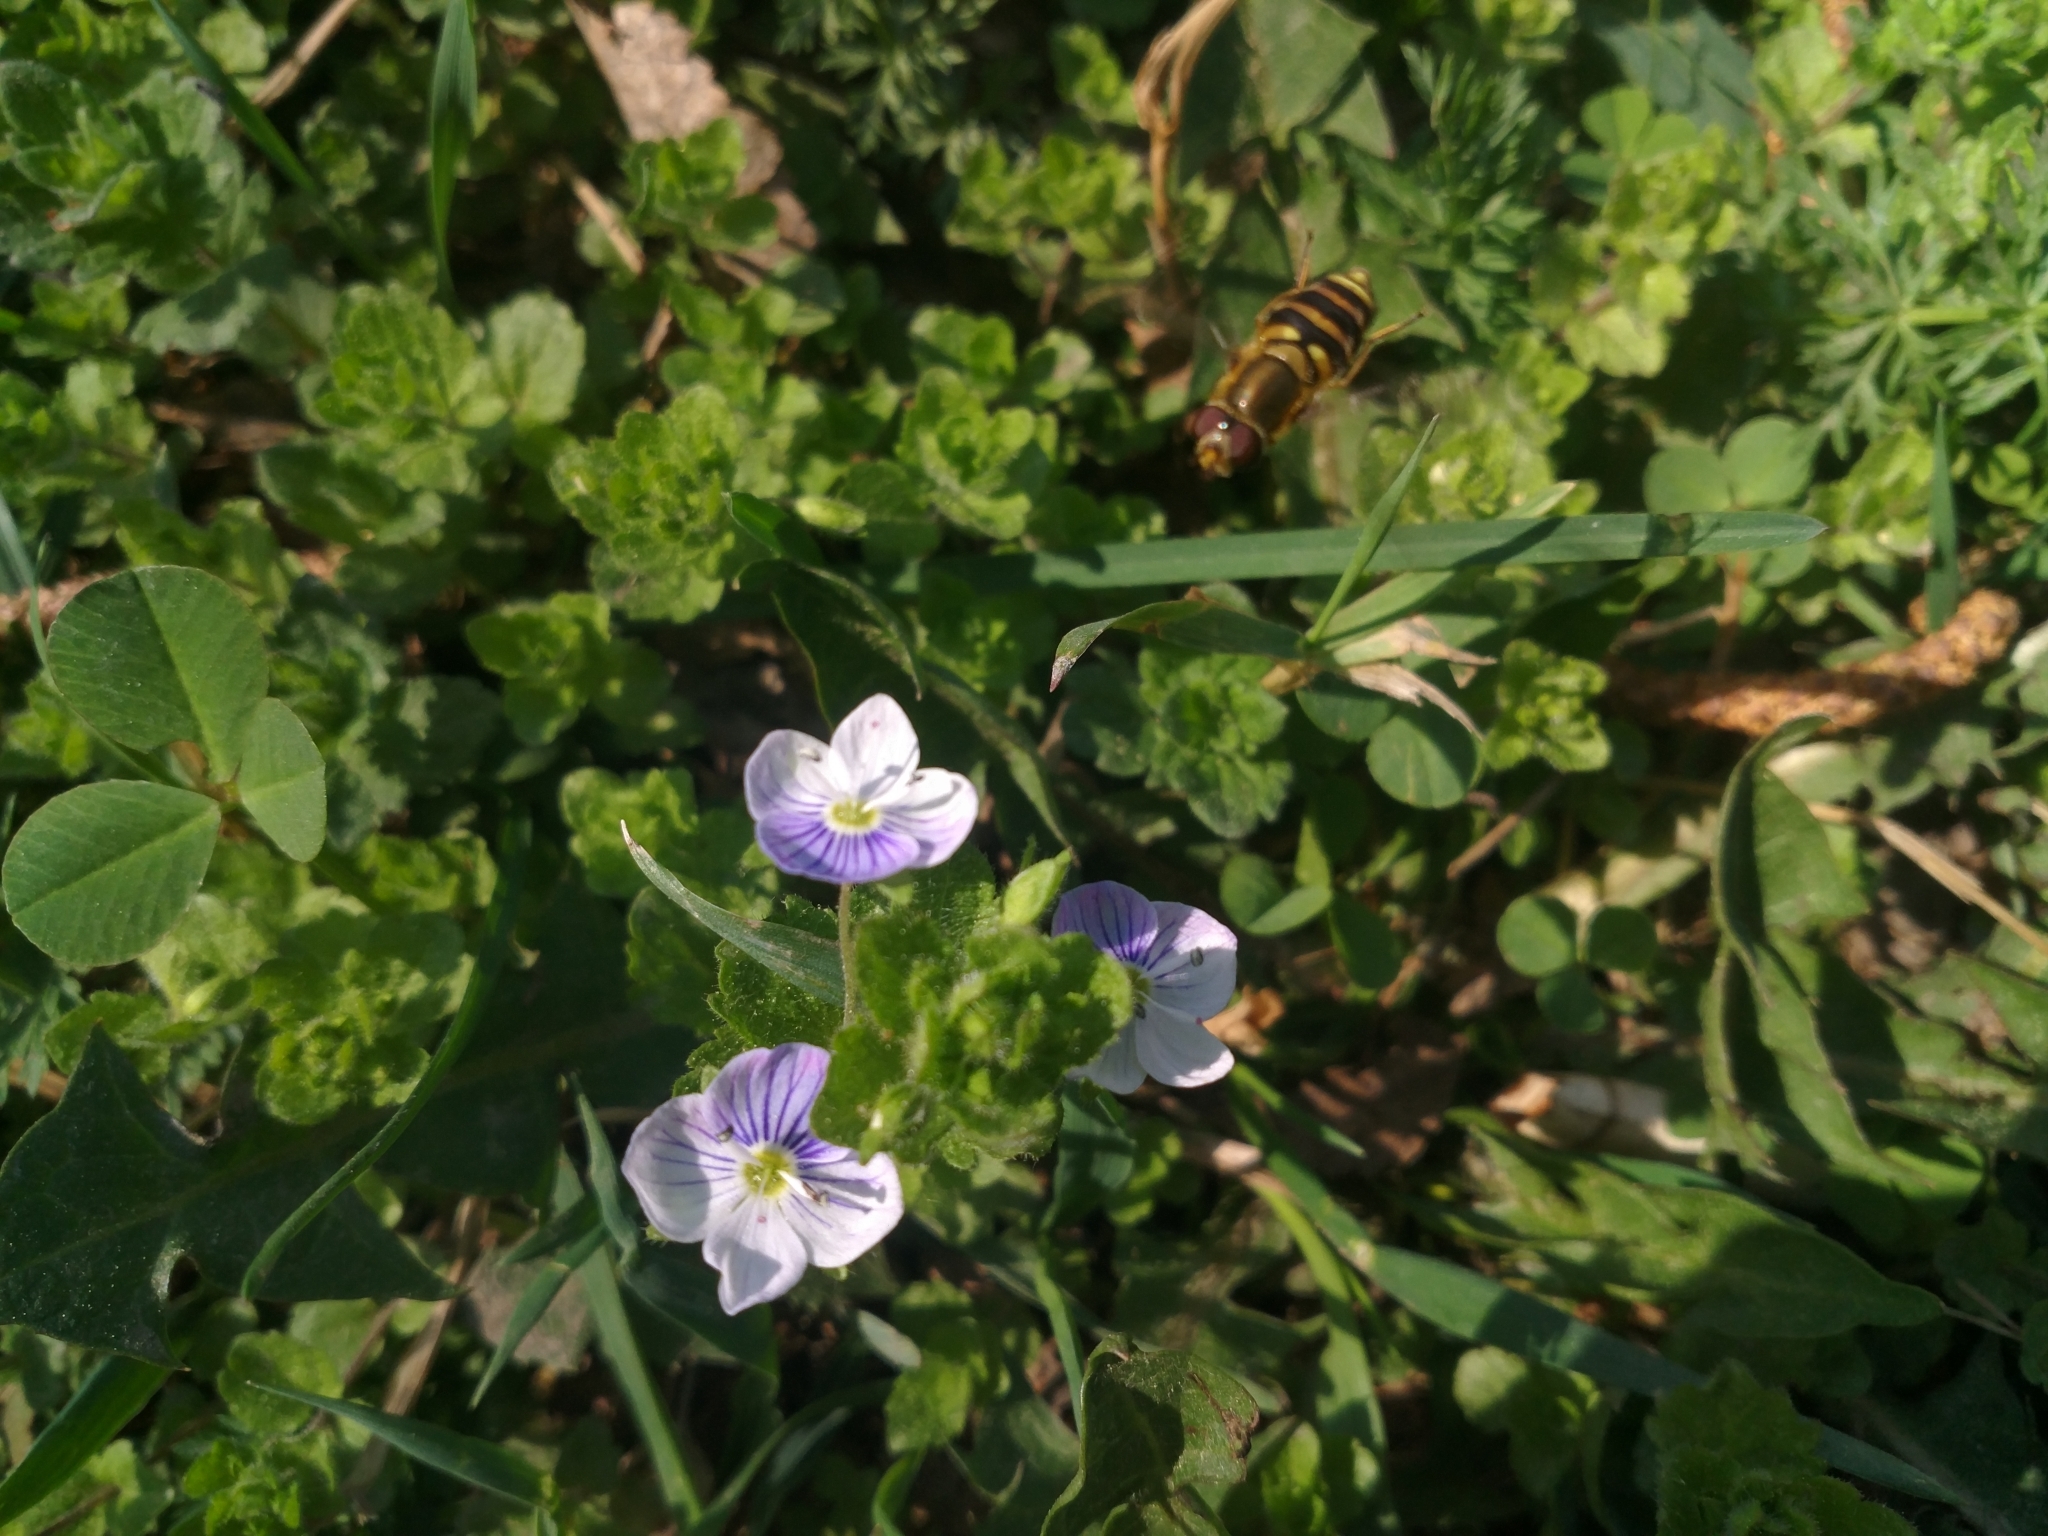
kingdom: Plantae
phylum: Tracheophyta
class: Magnoliopsida
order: Lamiales
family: Plantaginaceae
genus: Veronica
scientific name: Veronica filiformis
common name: Slender speedwell
